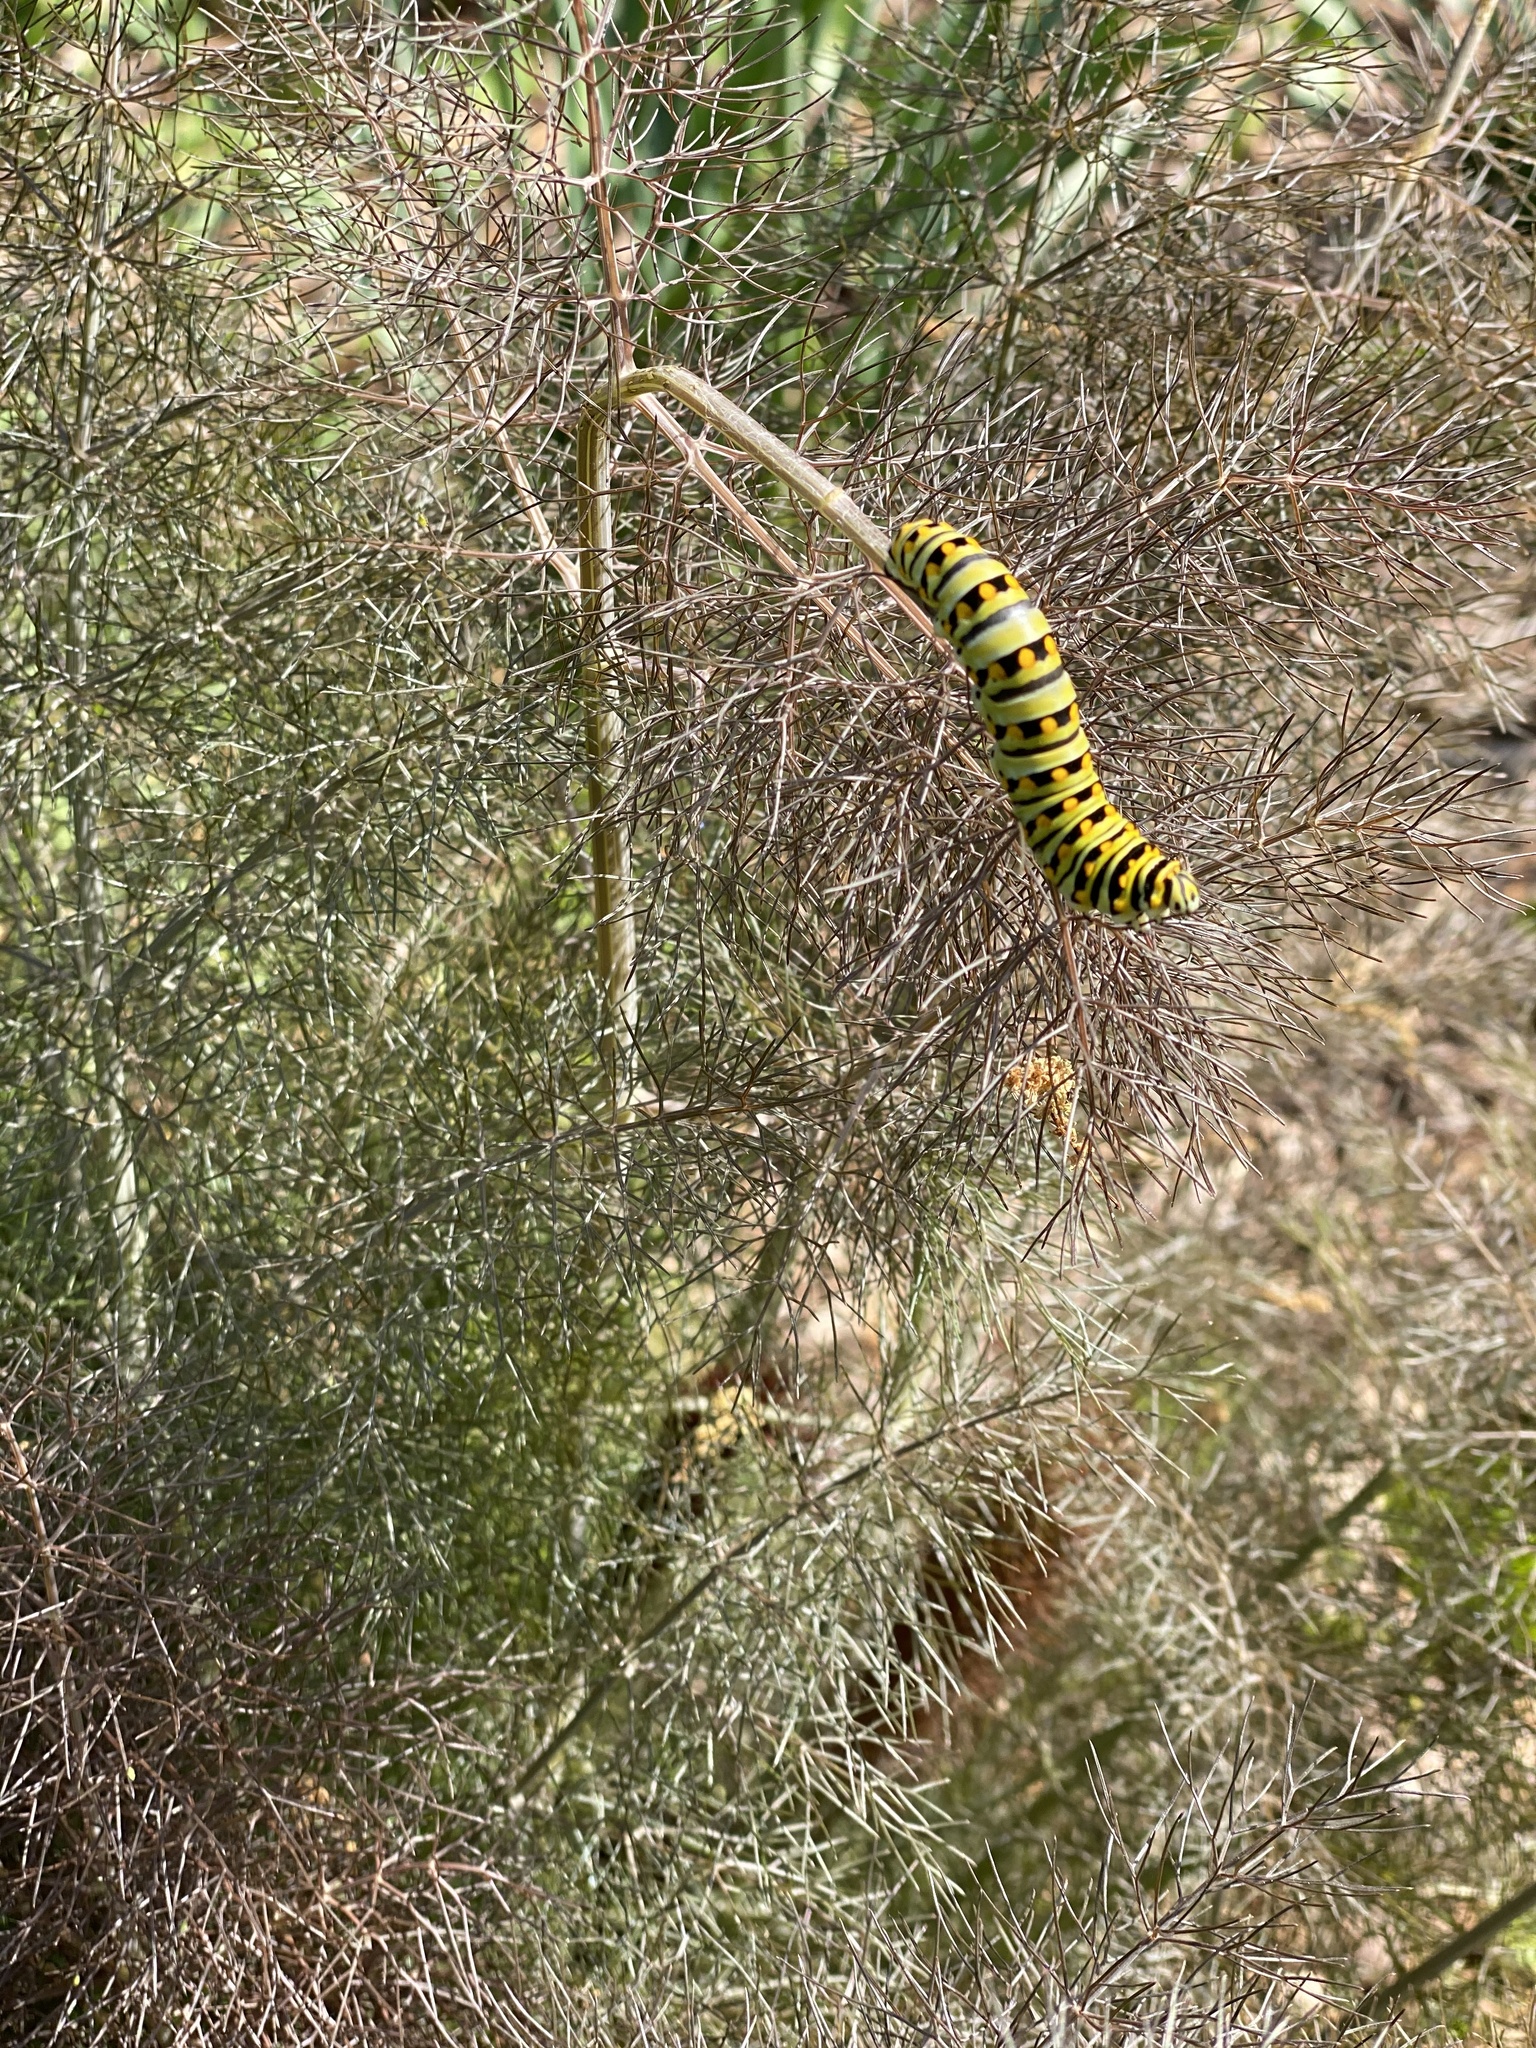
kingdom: Animalia
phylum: Arthropoda
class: Insecta
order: Lepidoptera
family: Papilionidae
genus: Papilio
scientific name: Papilio polyxenes
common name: Black swallowtail
